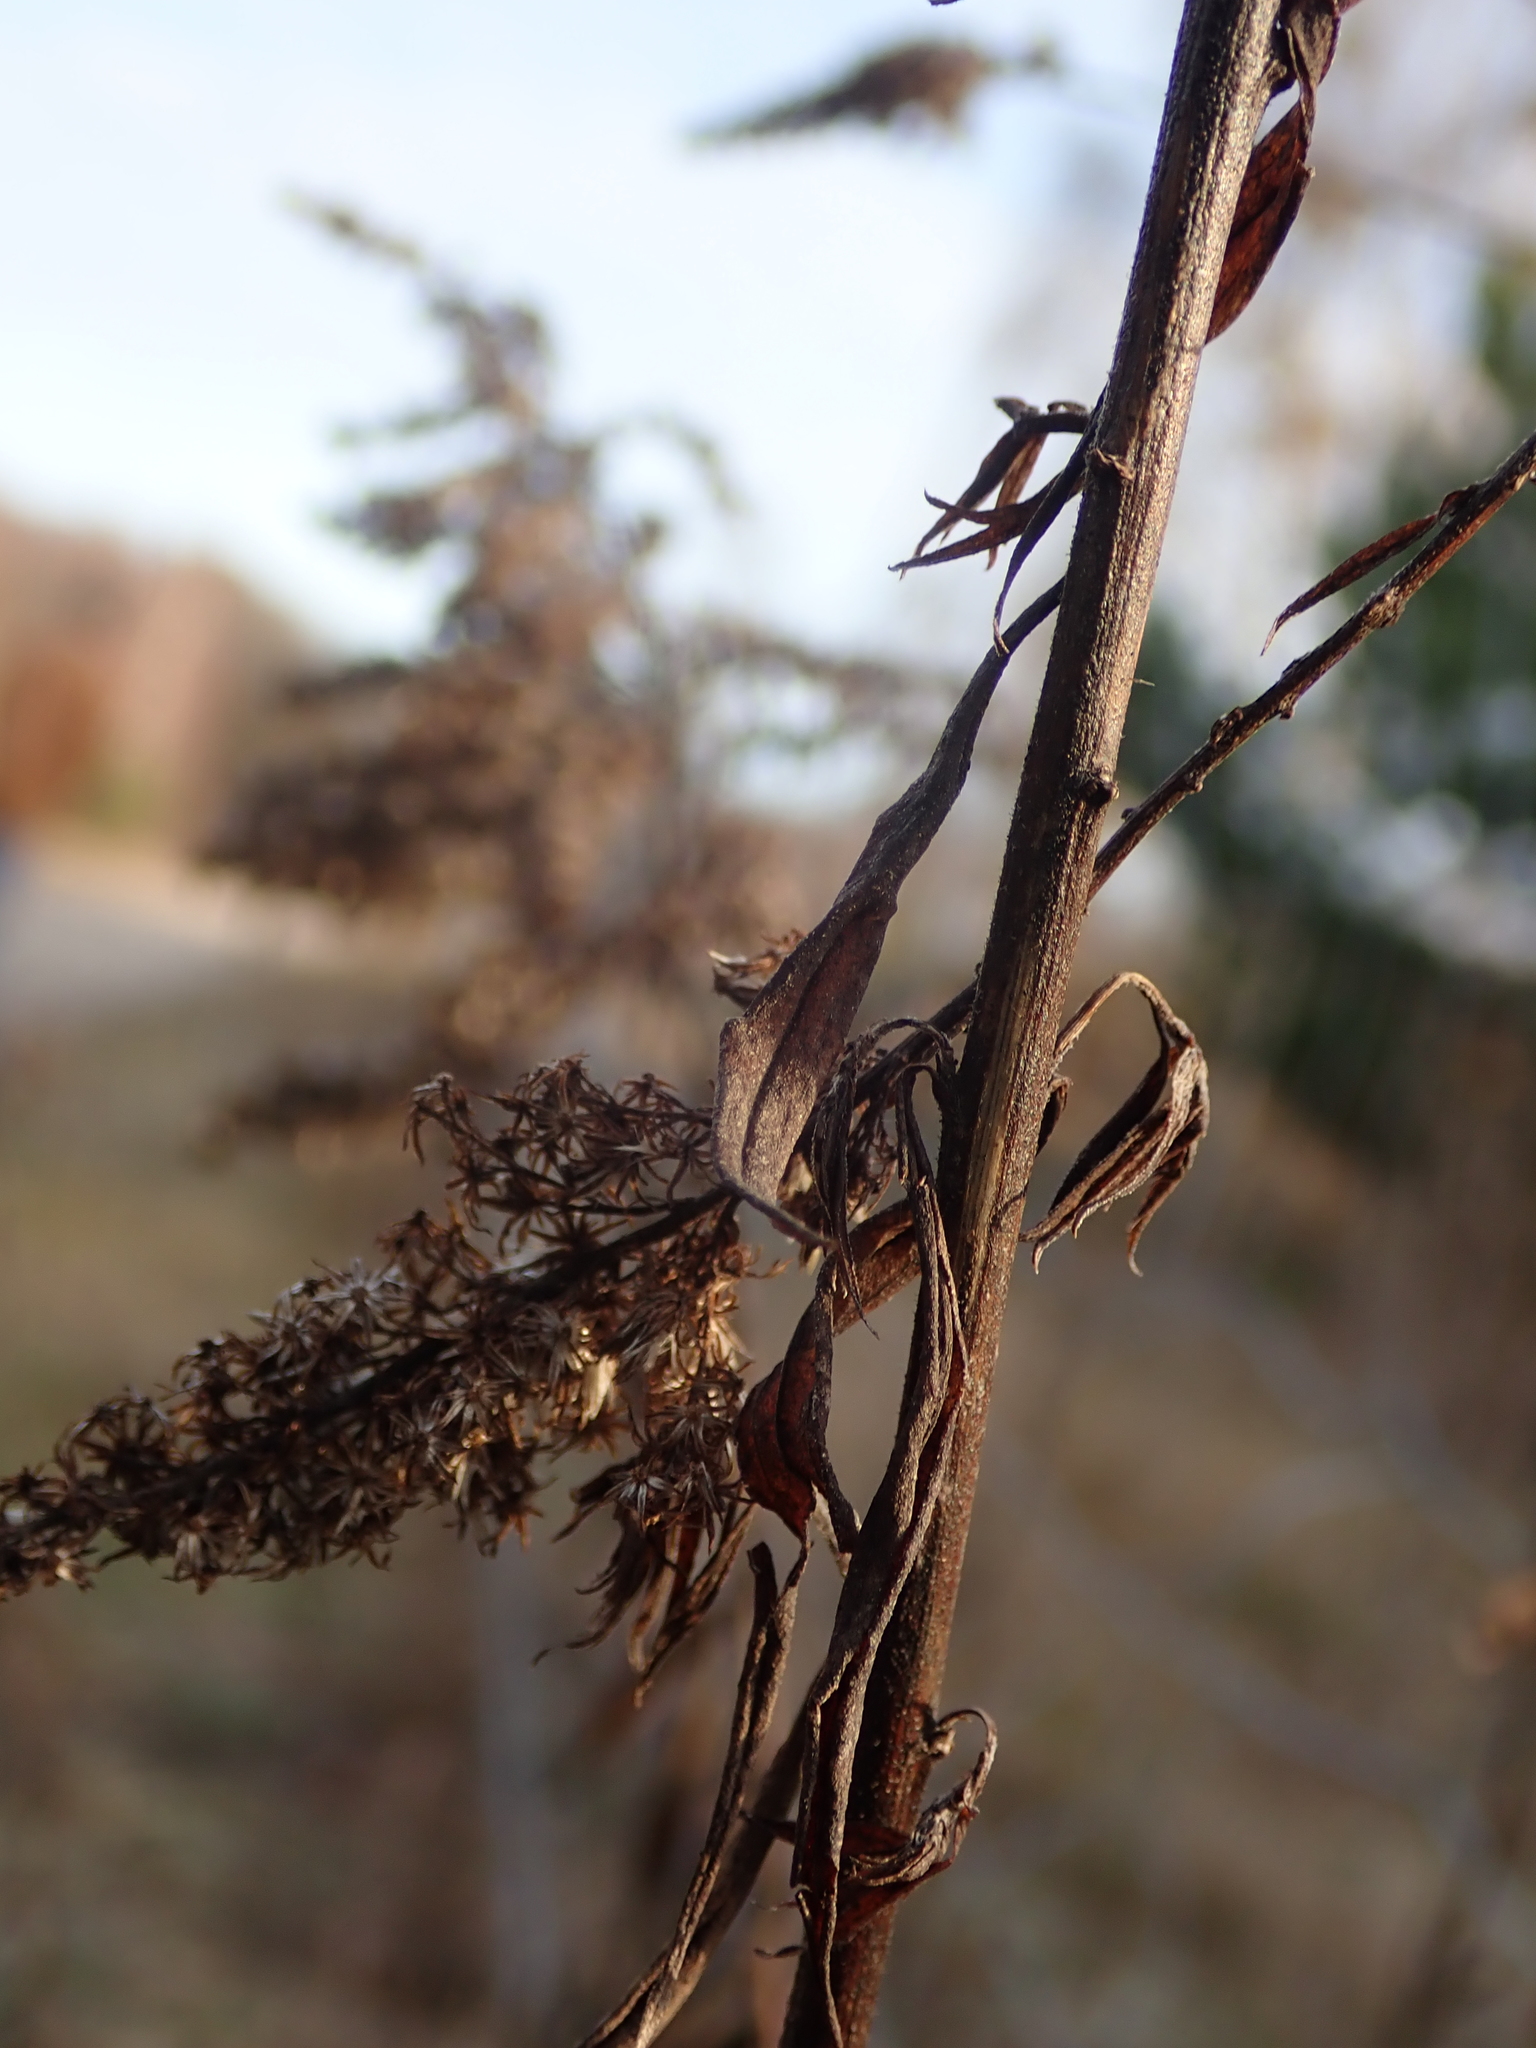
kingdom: Plantae
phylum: Tracheophyta
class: Magnoliopsida
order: Asterales
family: Asteraceae
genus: Solidago
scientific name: Solidago canadensis
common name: Canada goldenrod
